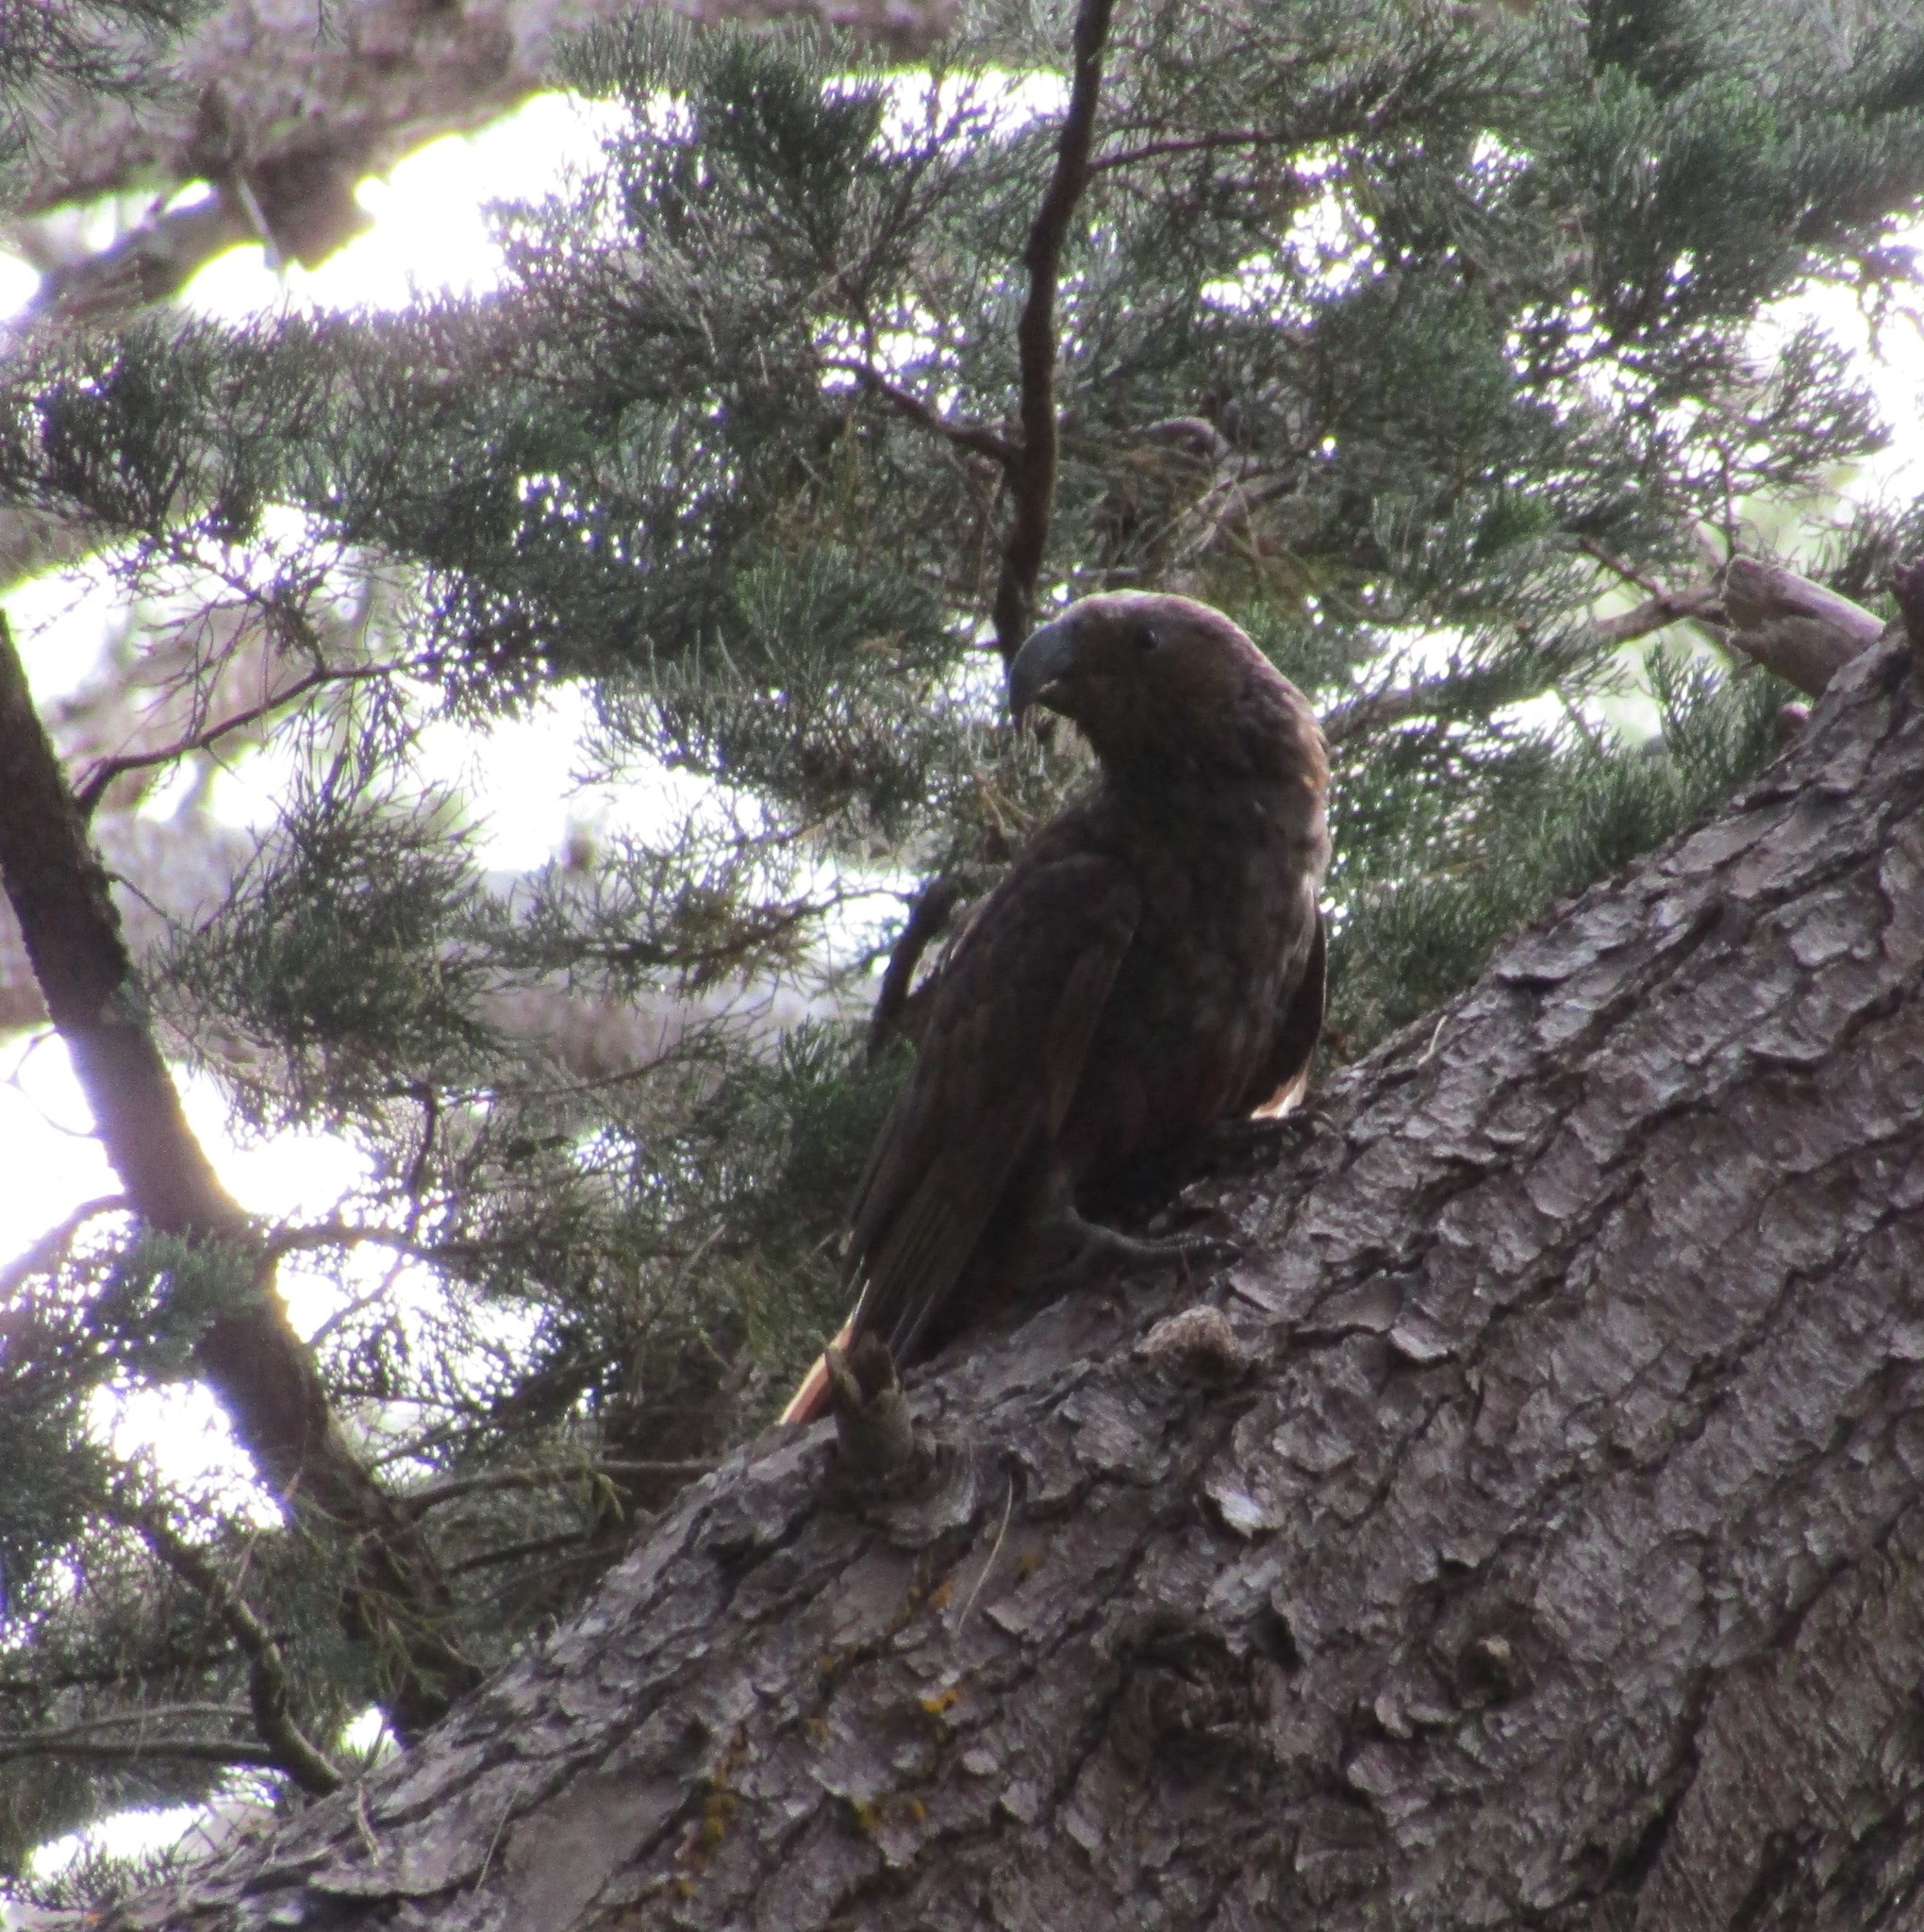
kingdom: Animalia
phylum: Chordata
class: Aves
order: Psittaciformes
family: Psittacidae
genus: Nestor
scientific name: Nestor meridionalis
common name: New zealand kaka
